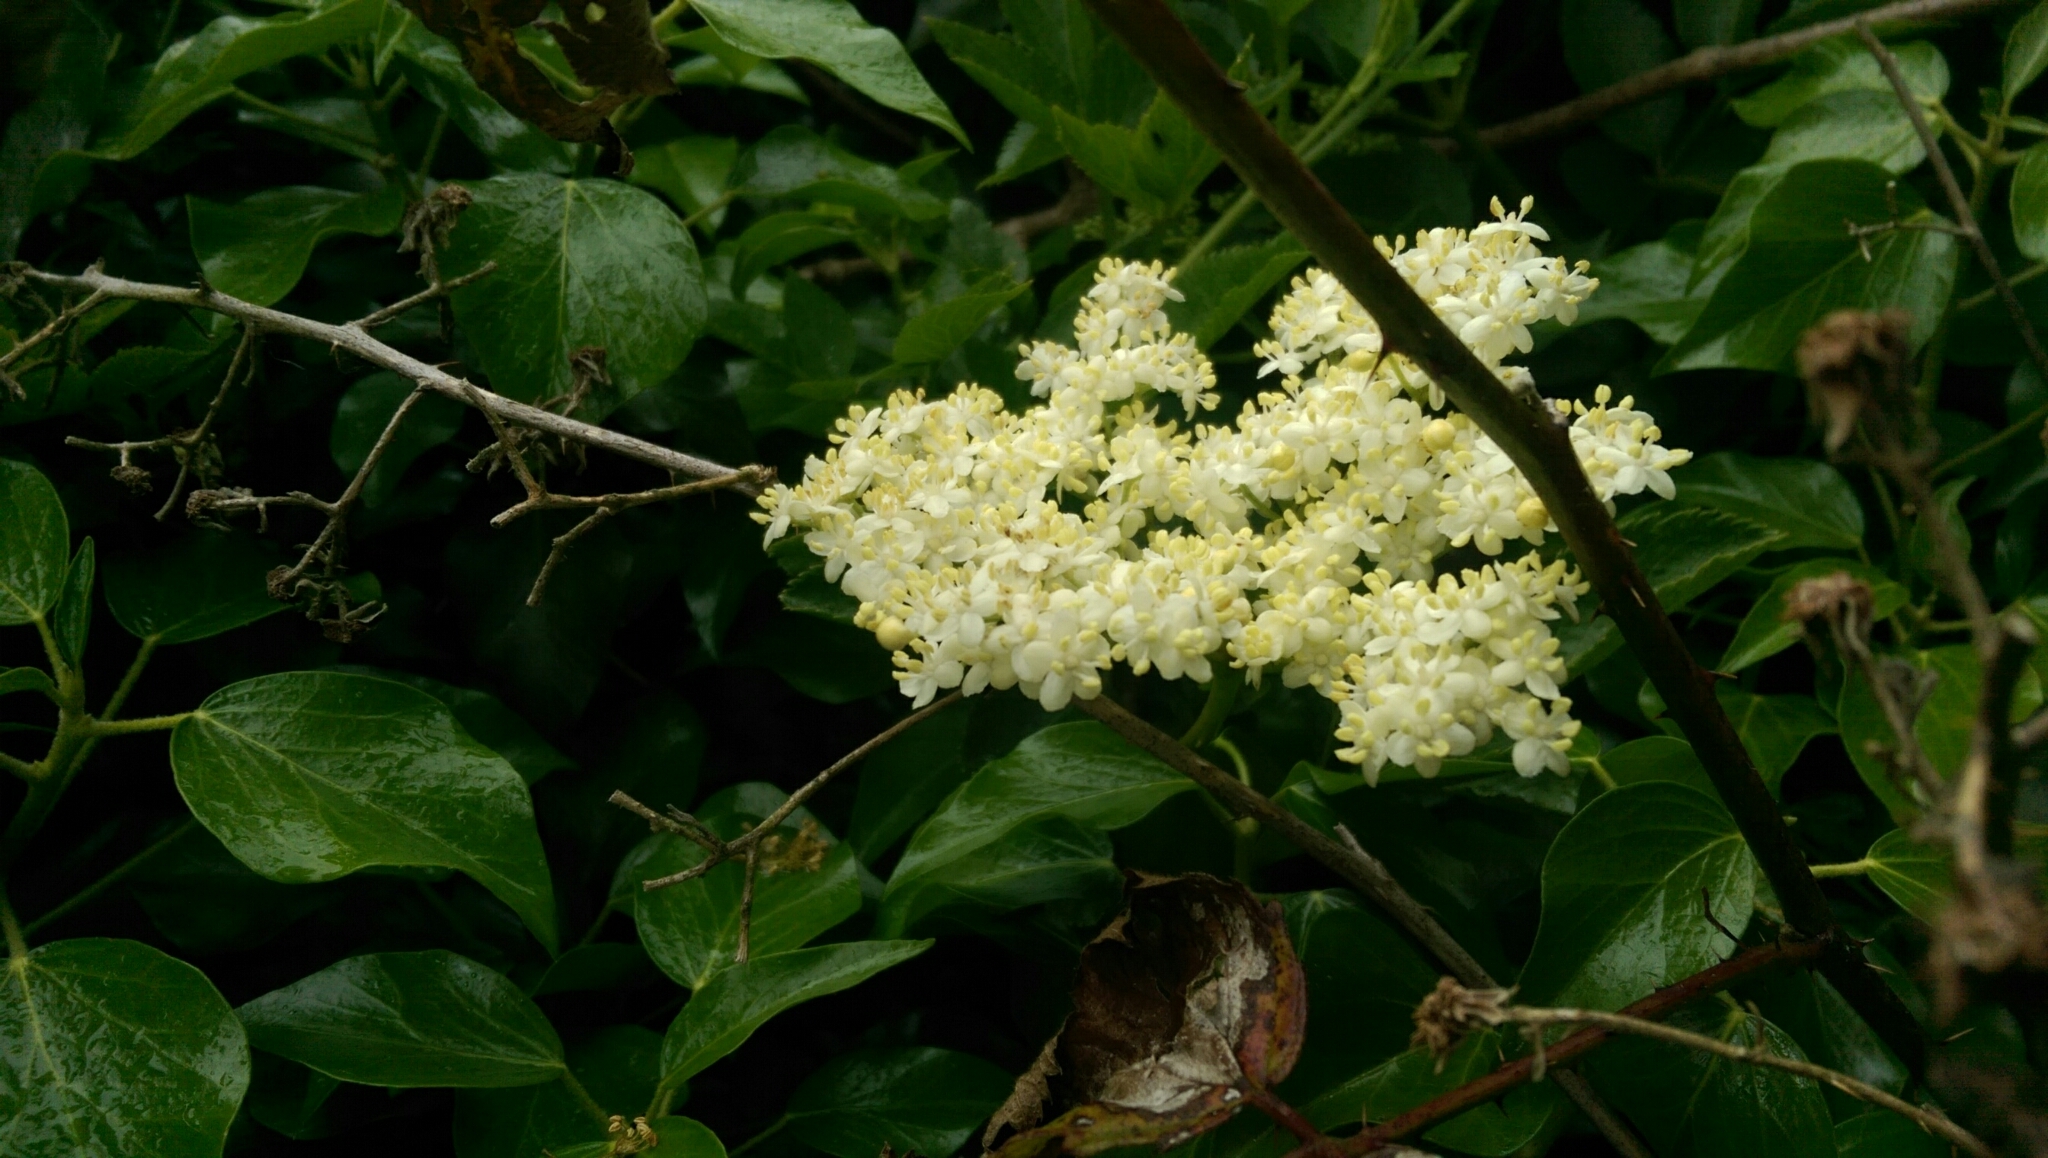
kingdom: Plantae
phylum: Tracheophyta
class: Magnoliopsida
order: Dipsacales
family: Viburnaceae
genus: Sambucus
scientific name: Sambucus nigra
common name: Elder
